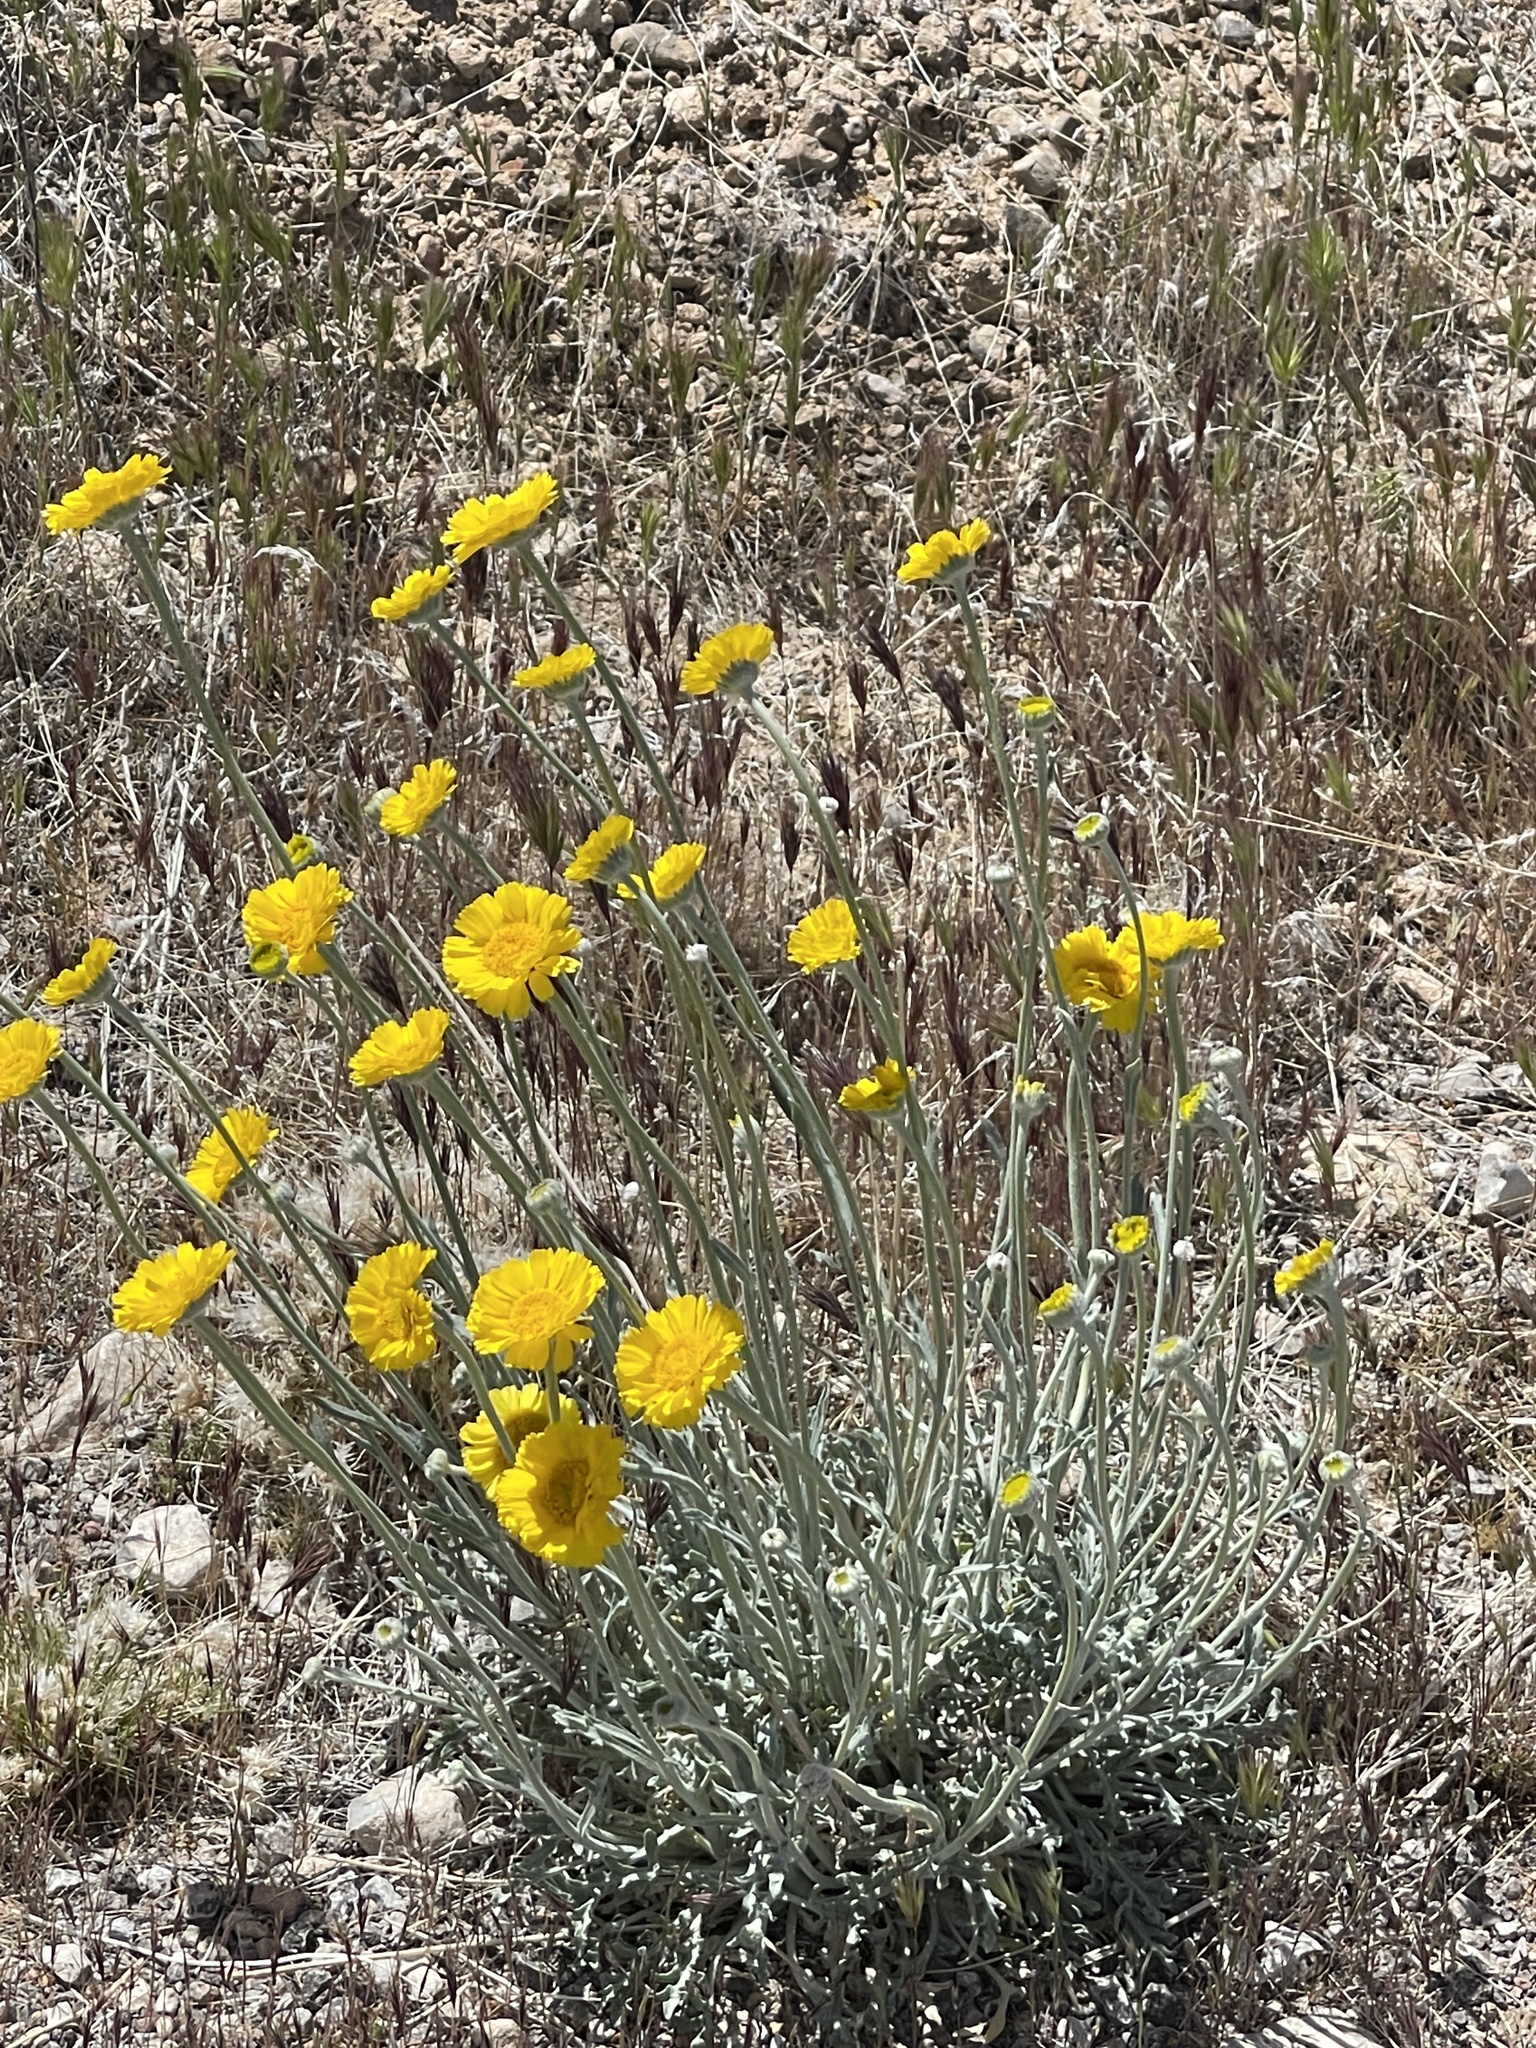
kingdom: Plantae
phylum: Tracheophyta
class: Magnoliopsida
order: Asterales
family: Asteraceae
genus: Baileya
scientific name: Baileya multiradiata
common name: Desert-marigold
